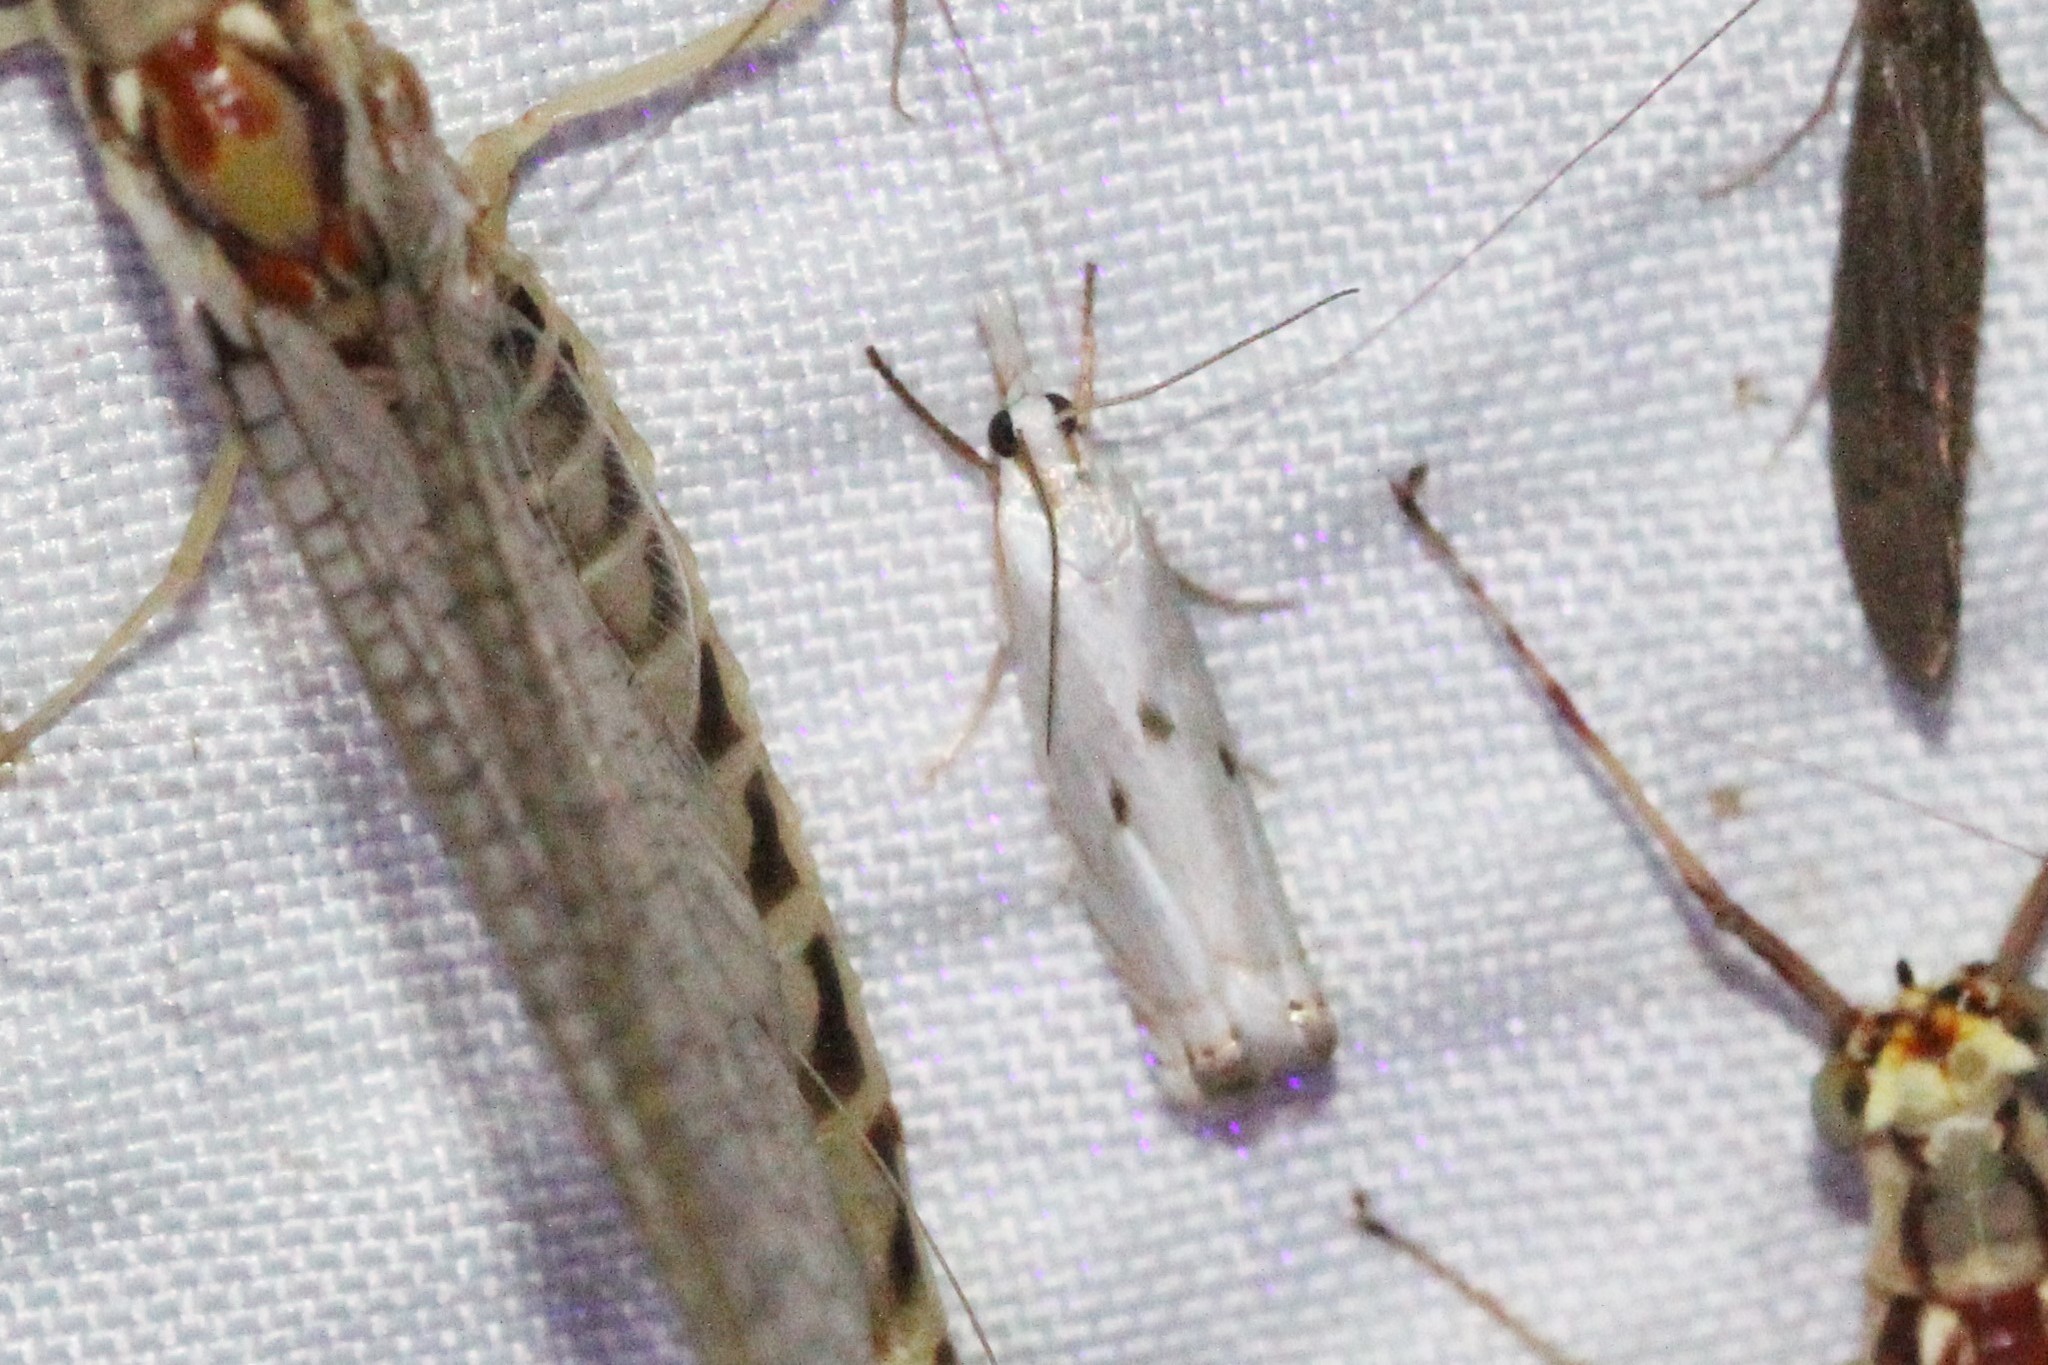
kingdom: Animalia
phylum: Arthropoda
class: Insecta
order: Lepidoptera
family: Crambidae
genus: Microcrambus
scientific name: Microcrambus biguttellus
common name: Gold-stripe grass-veneer moth
